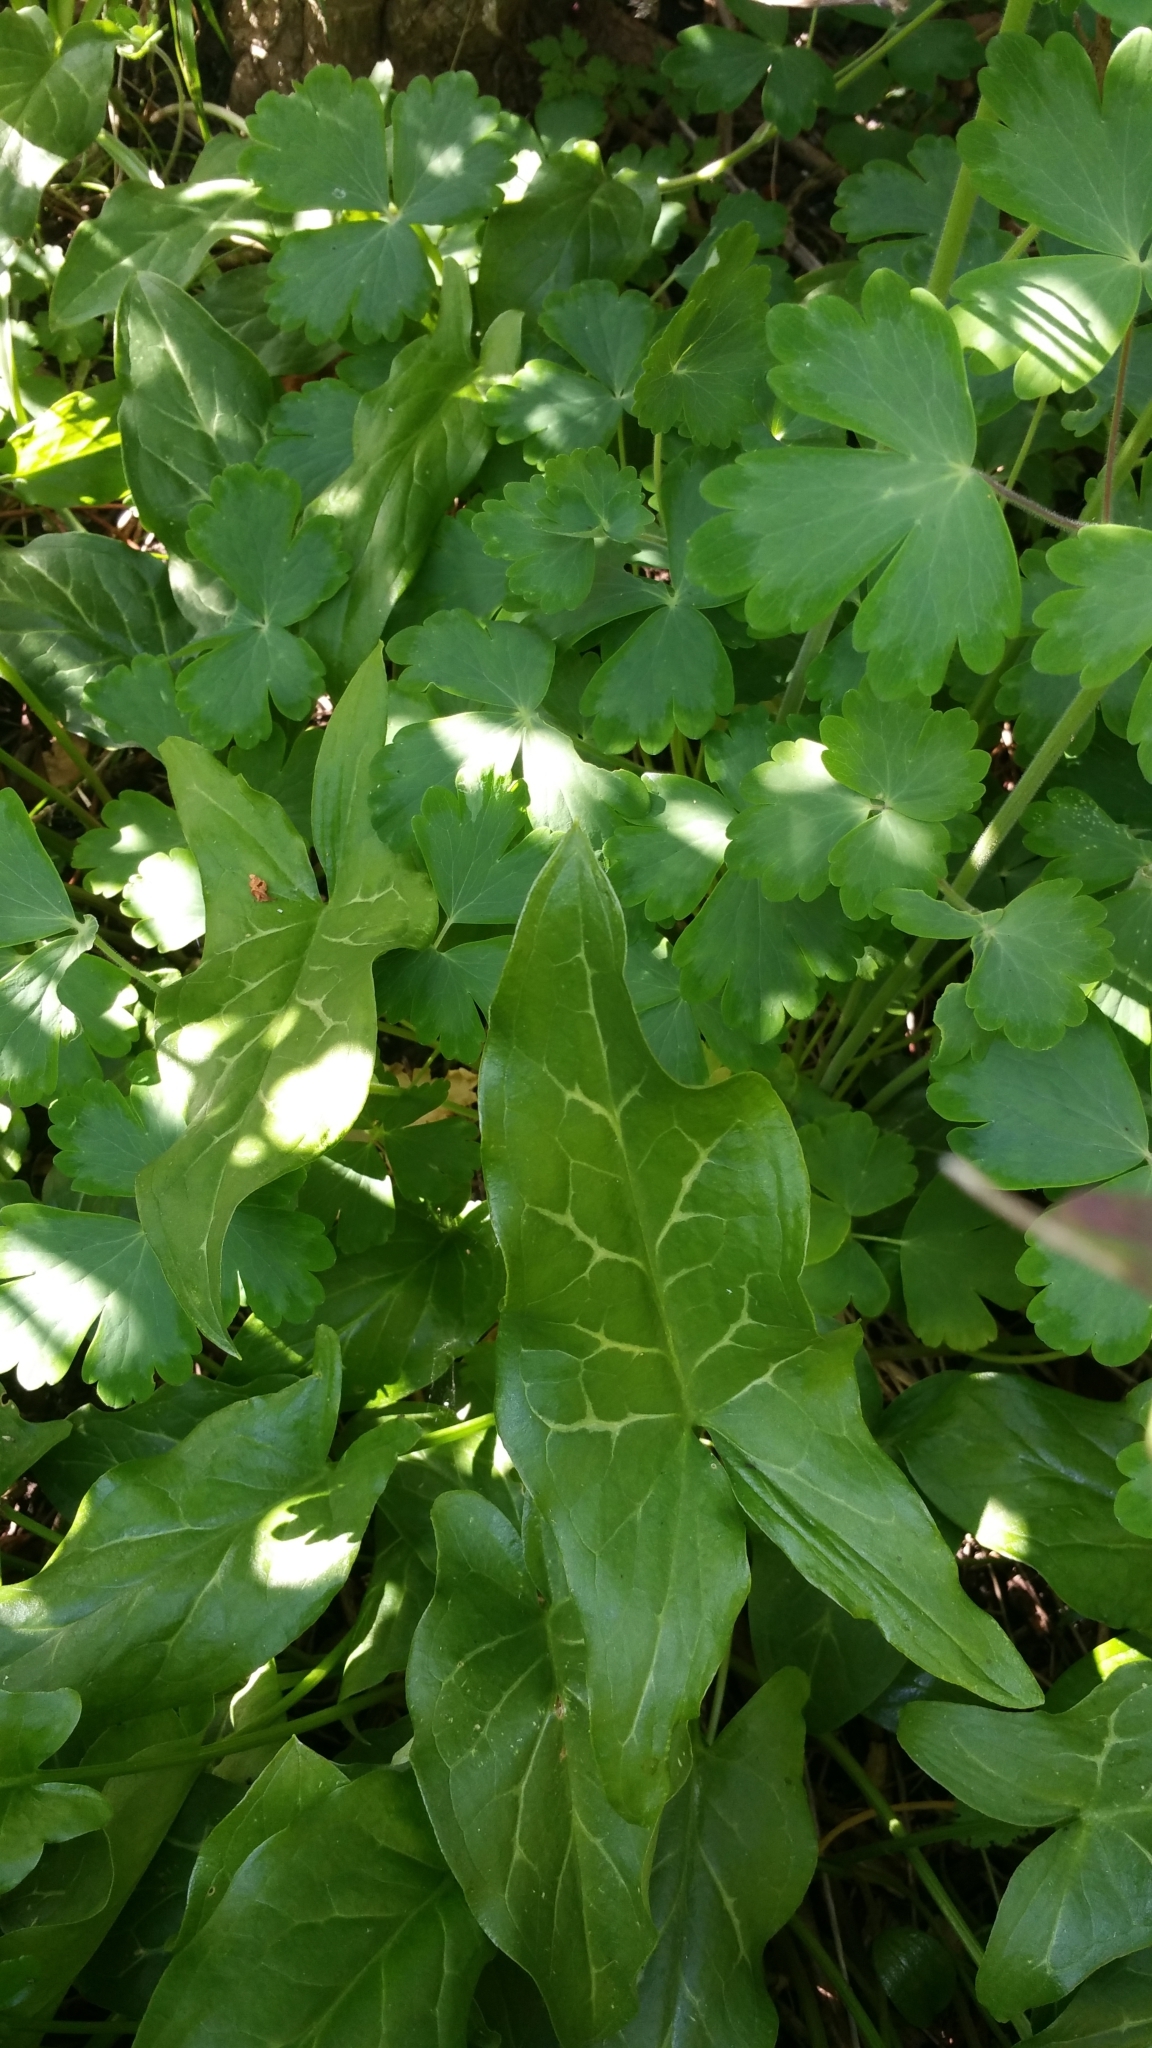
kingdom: Plantae
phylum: Tracheophyta
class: Liliopsida
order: Alismatales
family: Araceae
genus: Arum
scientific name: Arum italicum
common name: Italian lords-and-ladies
